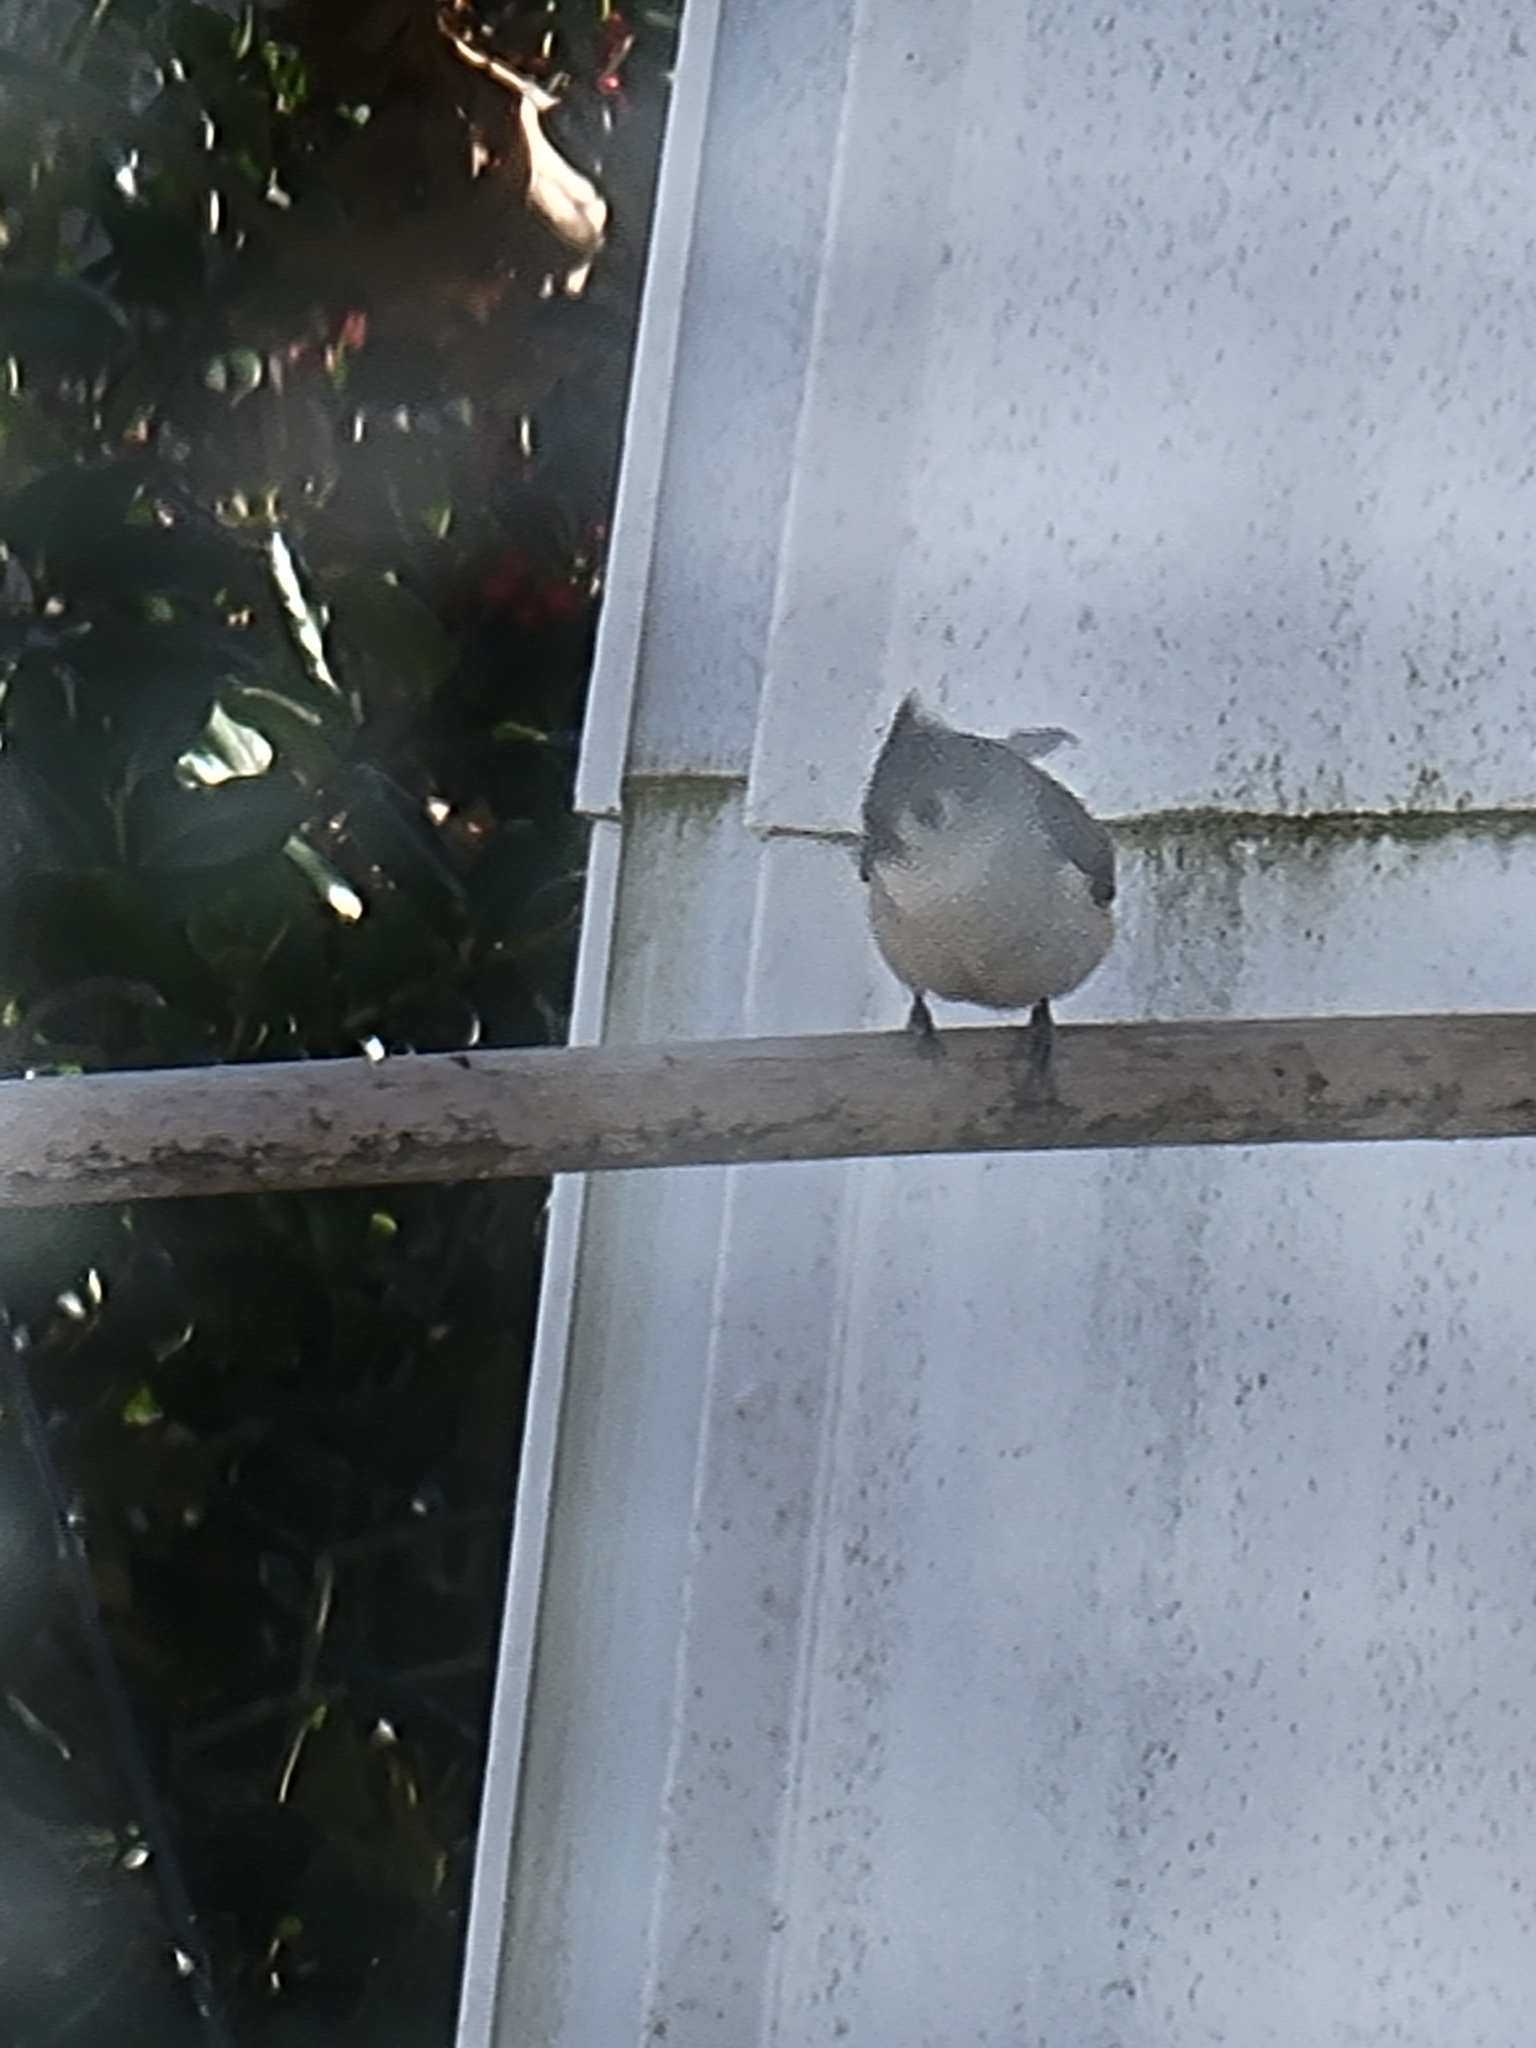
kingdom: Animalia
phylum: Chordata
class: Aves
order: Passeriformes
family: Paridae
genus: Baeolophus
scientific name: Baeolophus bicolor
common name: Tufted titmouse
